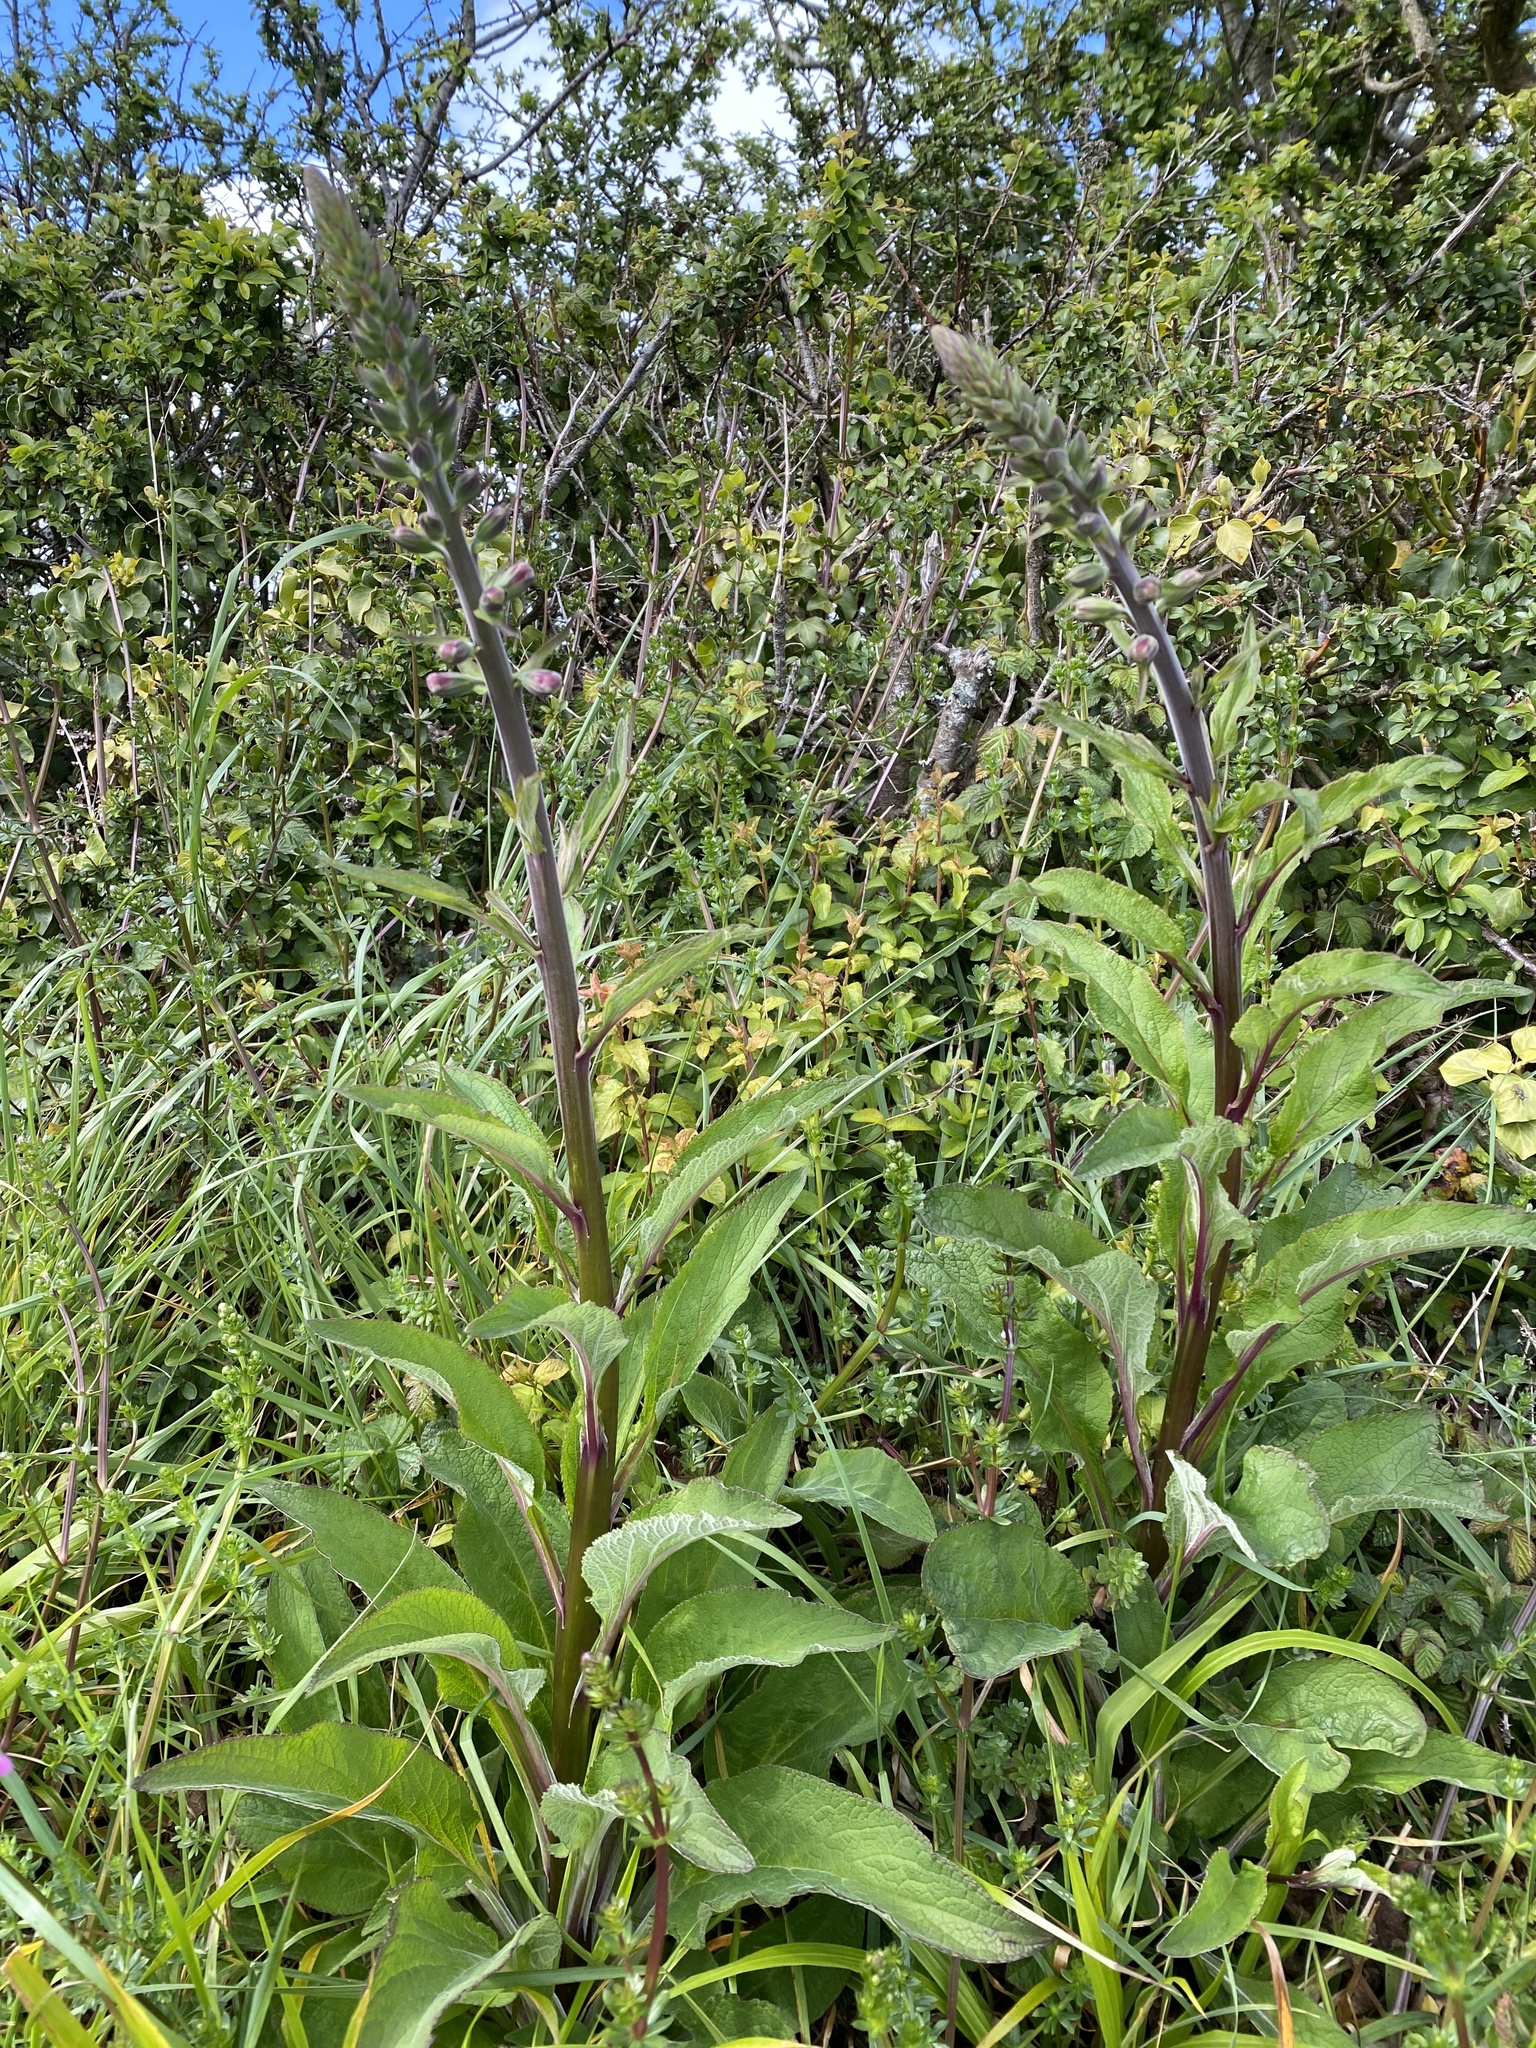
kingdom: Plantae
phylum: Tracheophyta
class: Magnoliopsida
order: Lamiales
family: Plantaginaceae
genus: Digitalis
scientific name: Digitalis purpurea
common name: Foxglove
